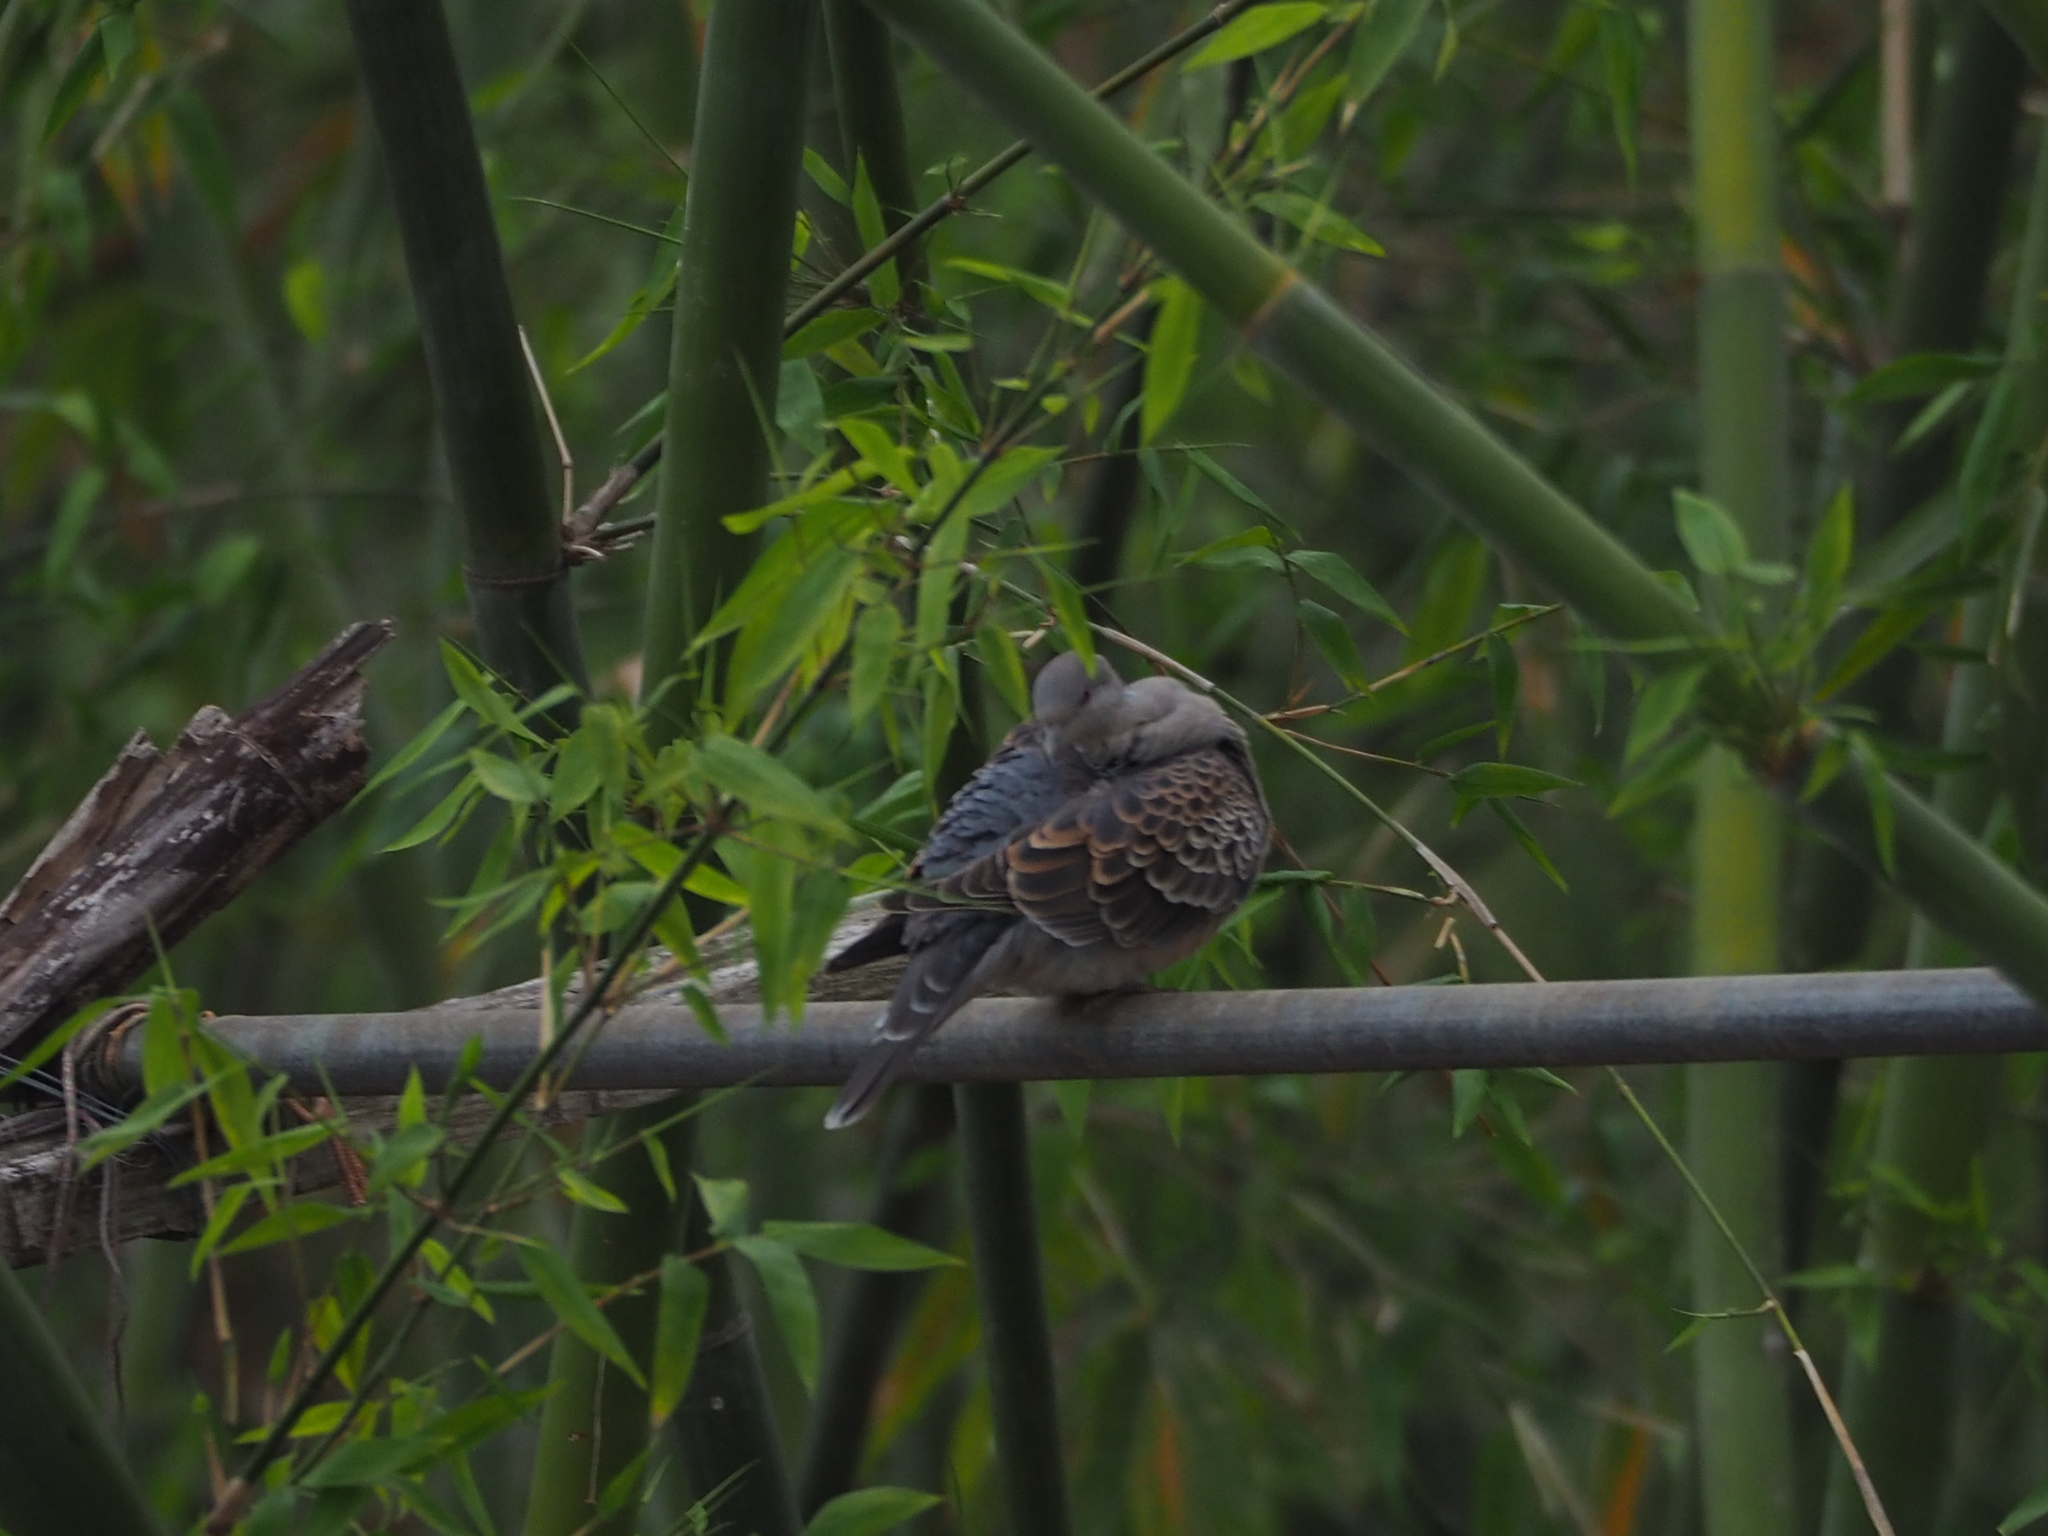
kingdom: Animalia
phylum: Chordata
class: Aves
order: Columbiformes
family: Columbidae
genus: Streptopelia
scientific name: Streptopelia orientalis
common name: Oriental turtle dove
